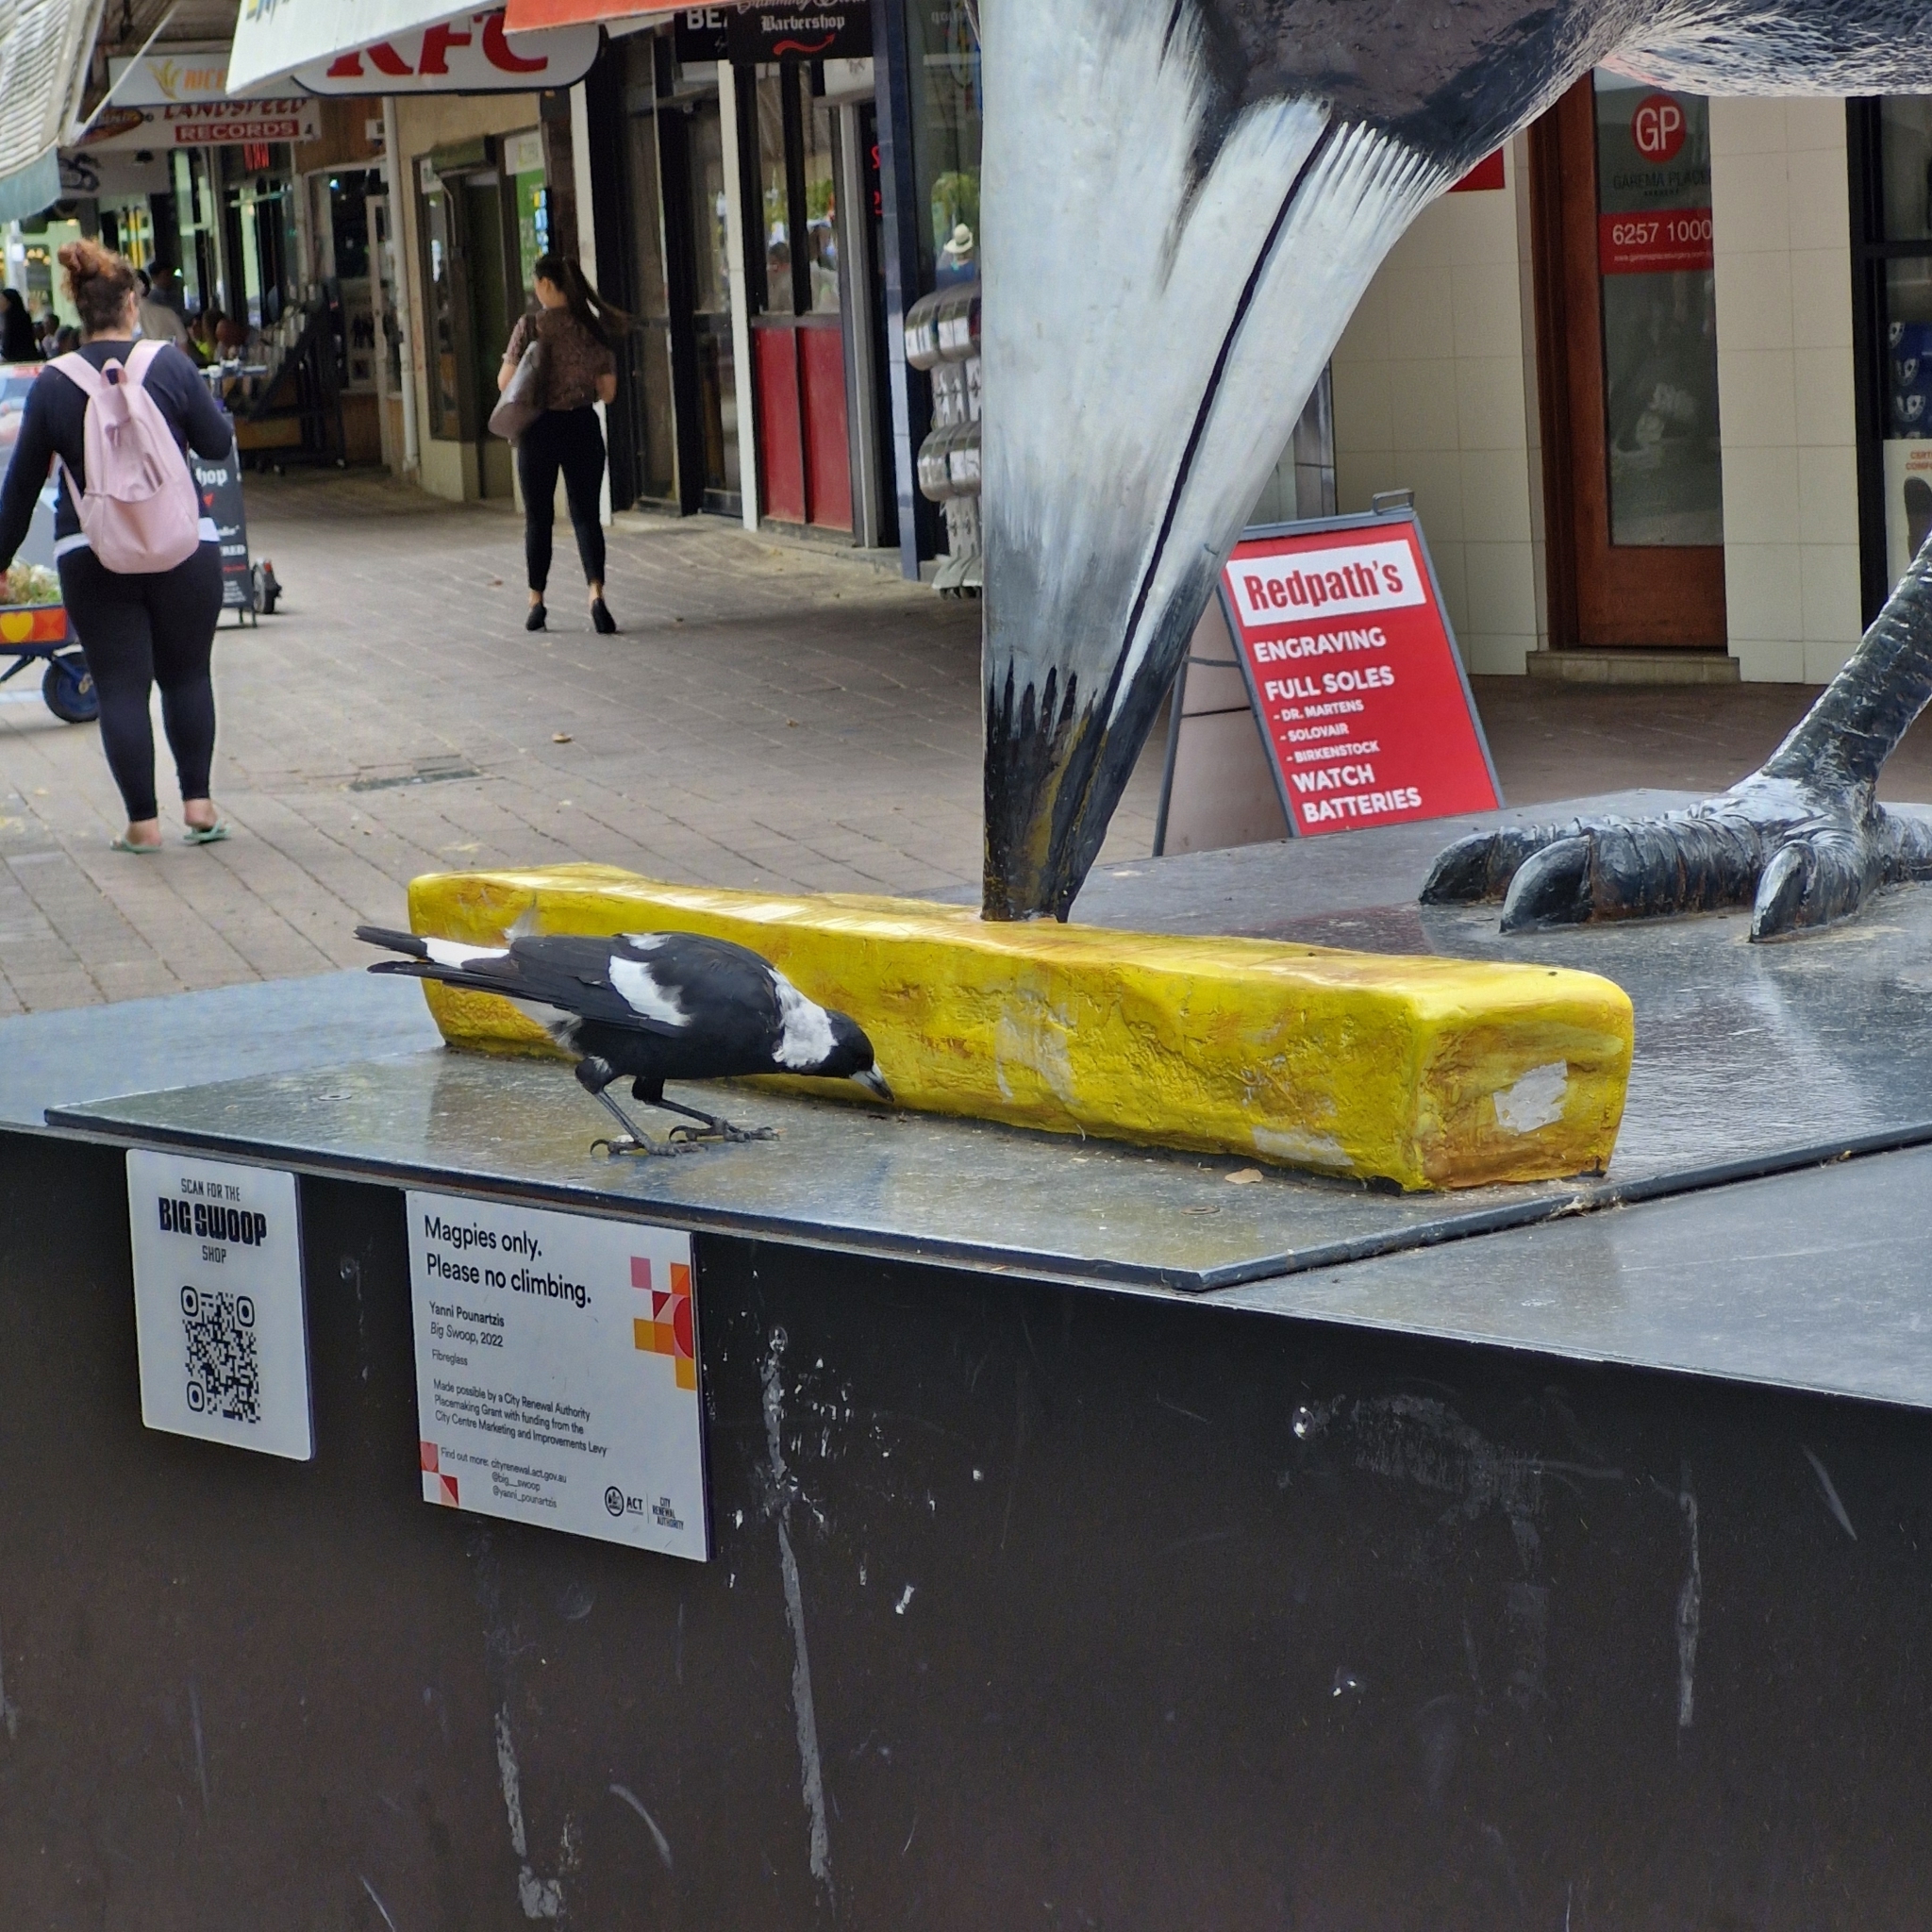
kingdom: Animalia
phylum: Chordata
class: Aves
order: Passeriformes
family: Cracticidae
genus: Gymnorhina
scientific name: Gymnorhina tibicen
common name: Australian magpie
